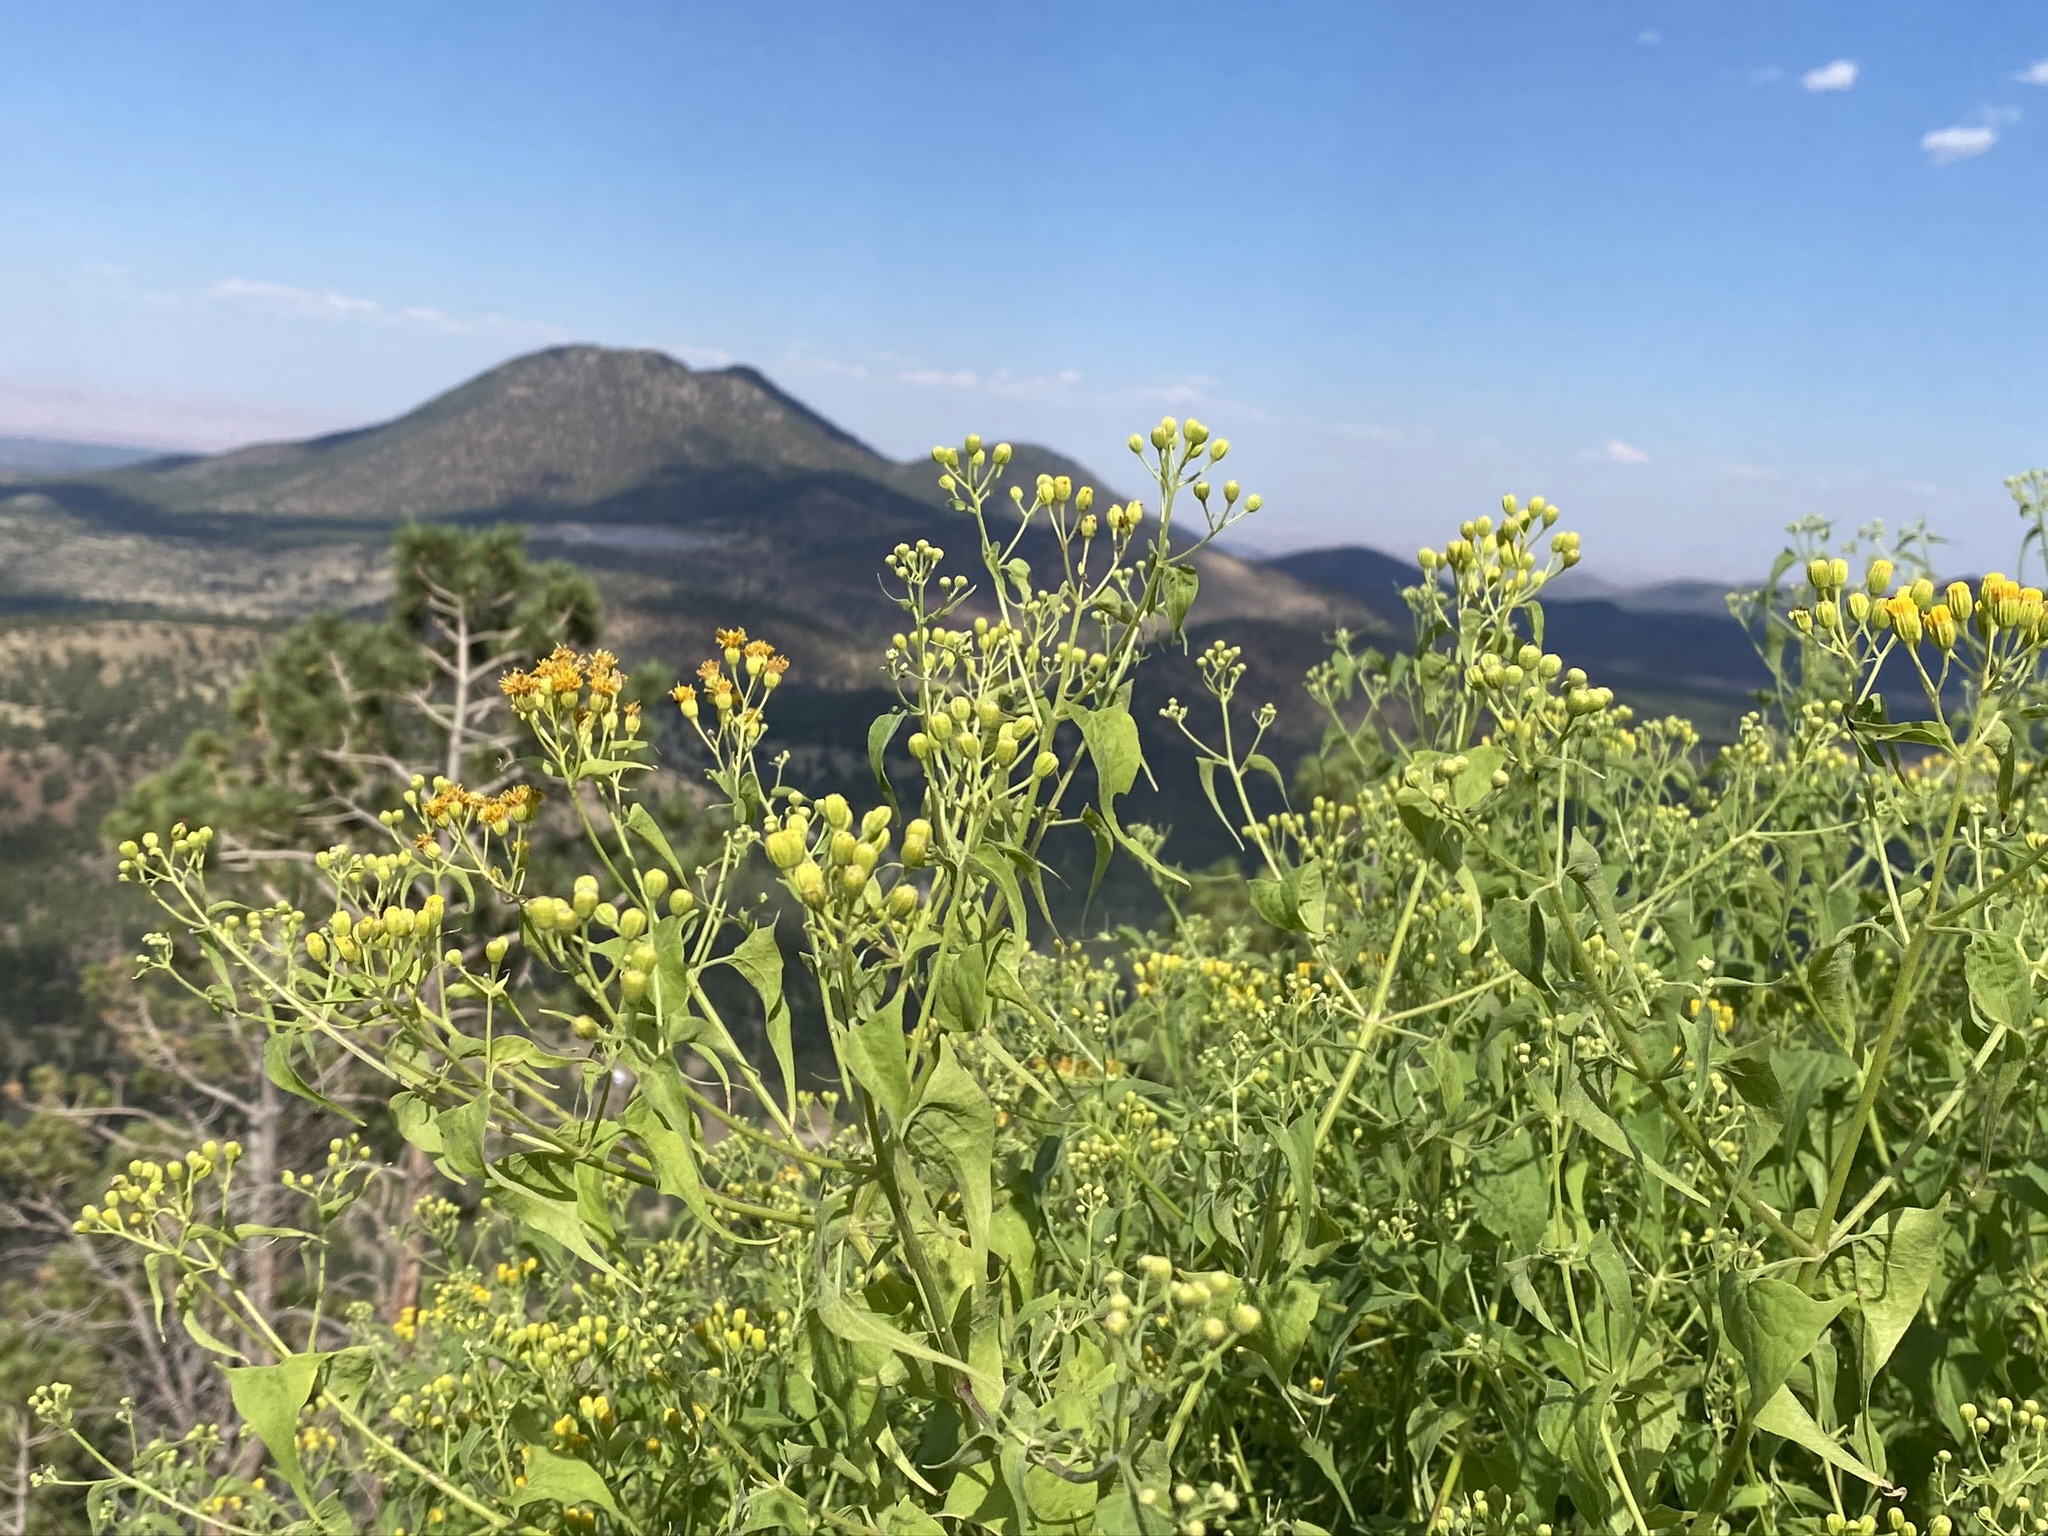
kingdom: Plantae
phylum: Tracheophyta
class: Magnoliopsida
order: Asterales
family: Asteraceae
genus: Pericome
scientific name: Pericome caudata
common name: Taperleaf
